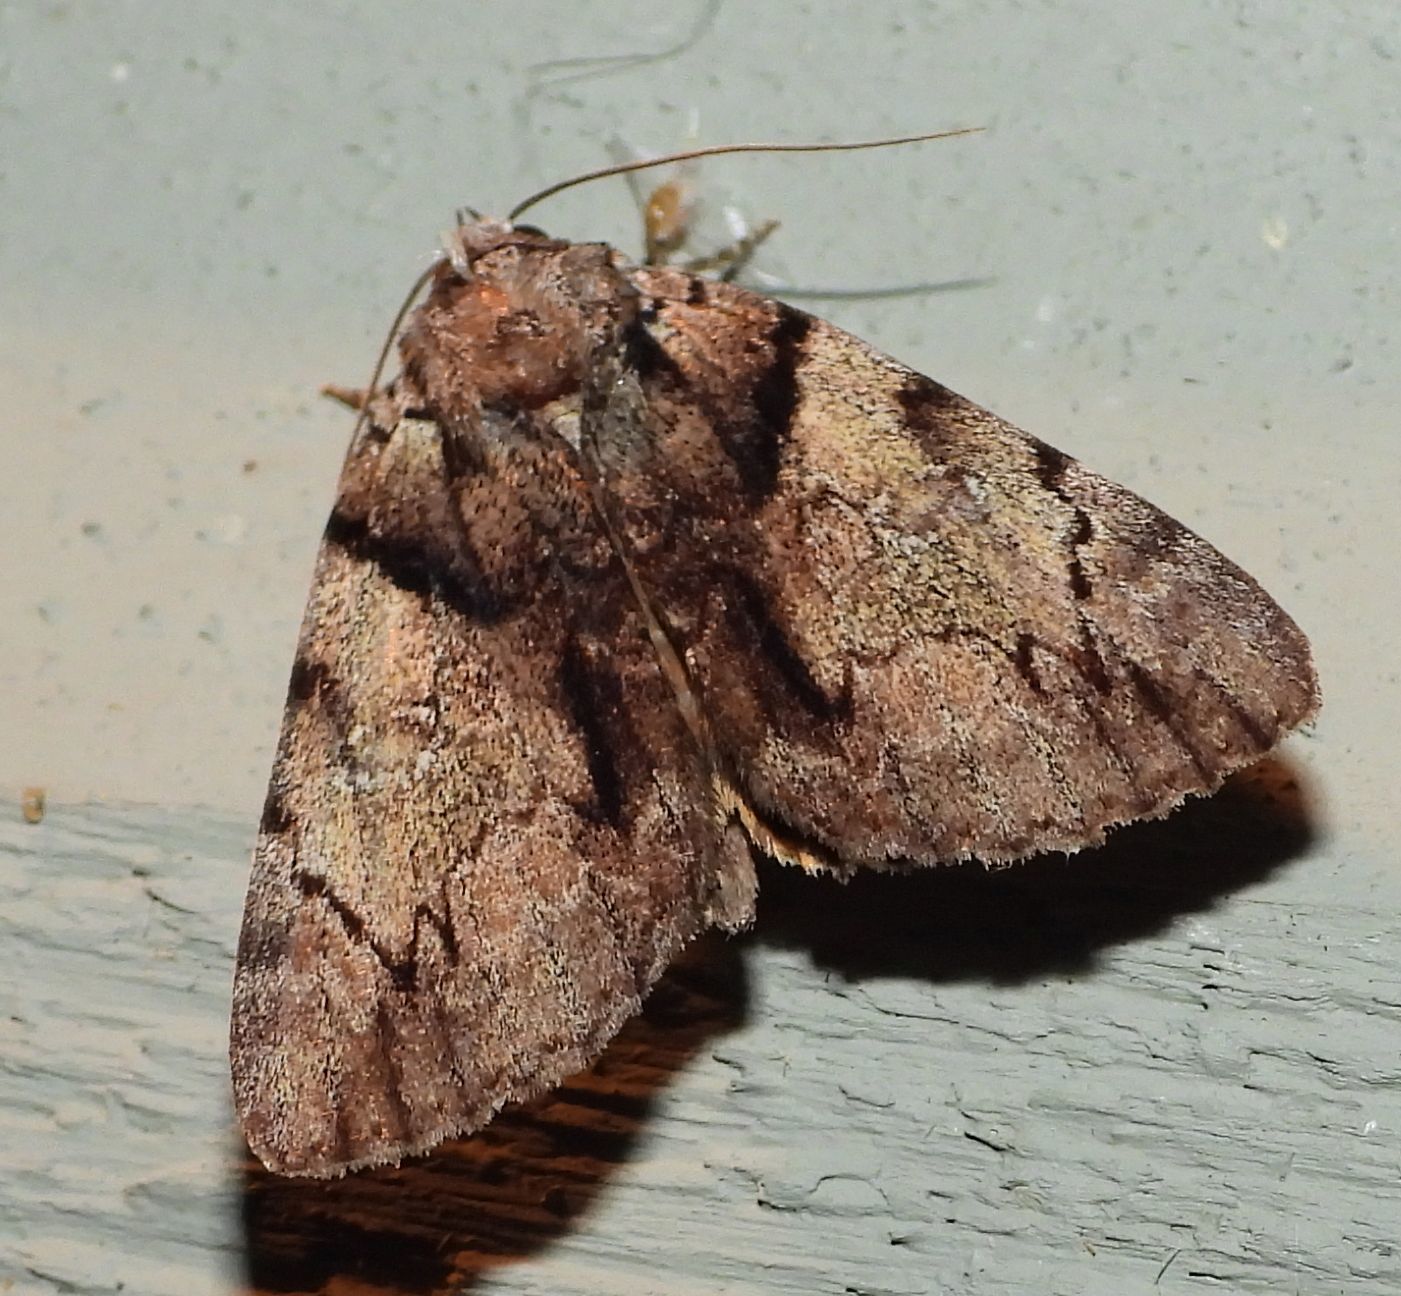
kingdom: Animalia
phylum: Arthropoda
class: Insecta
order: Lepidoptera
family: Erebidae
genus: Catocala
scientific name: Catocala crataegi
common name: Hawthorn underwing moth
